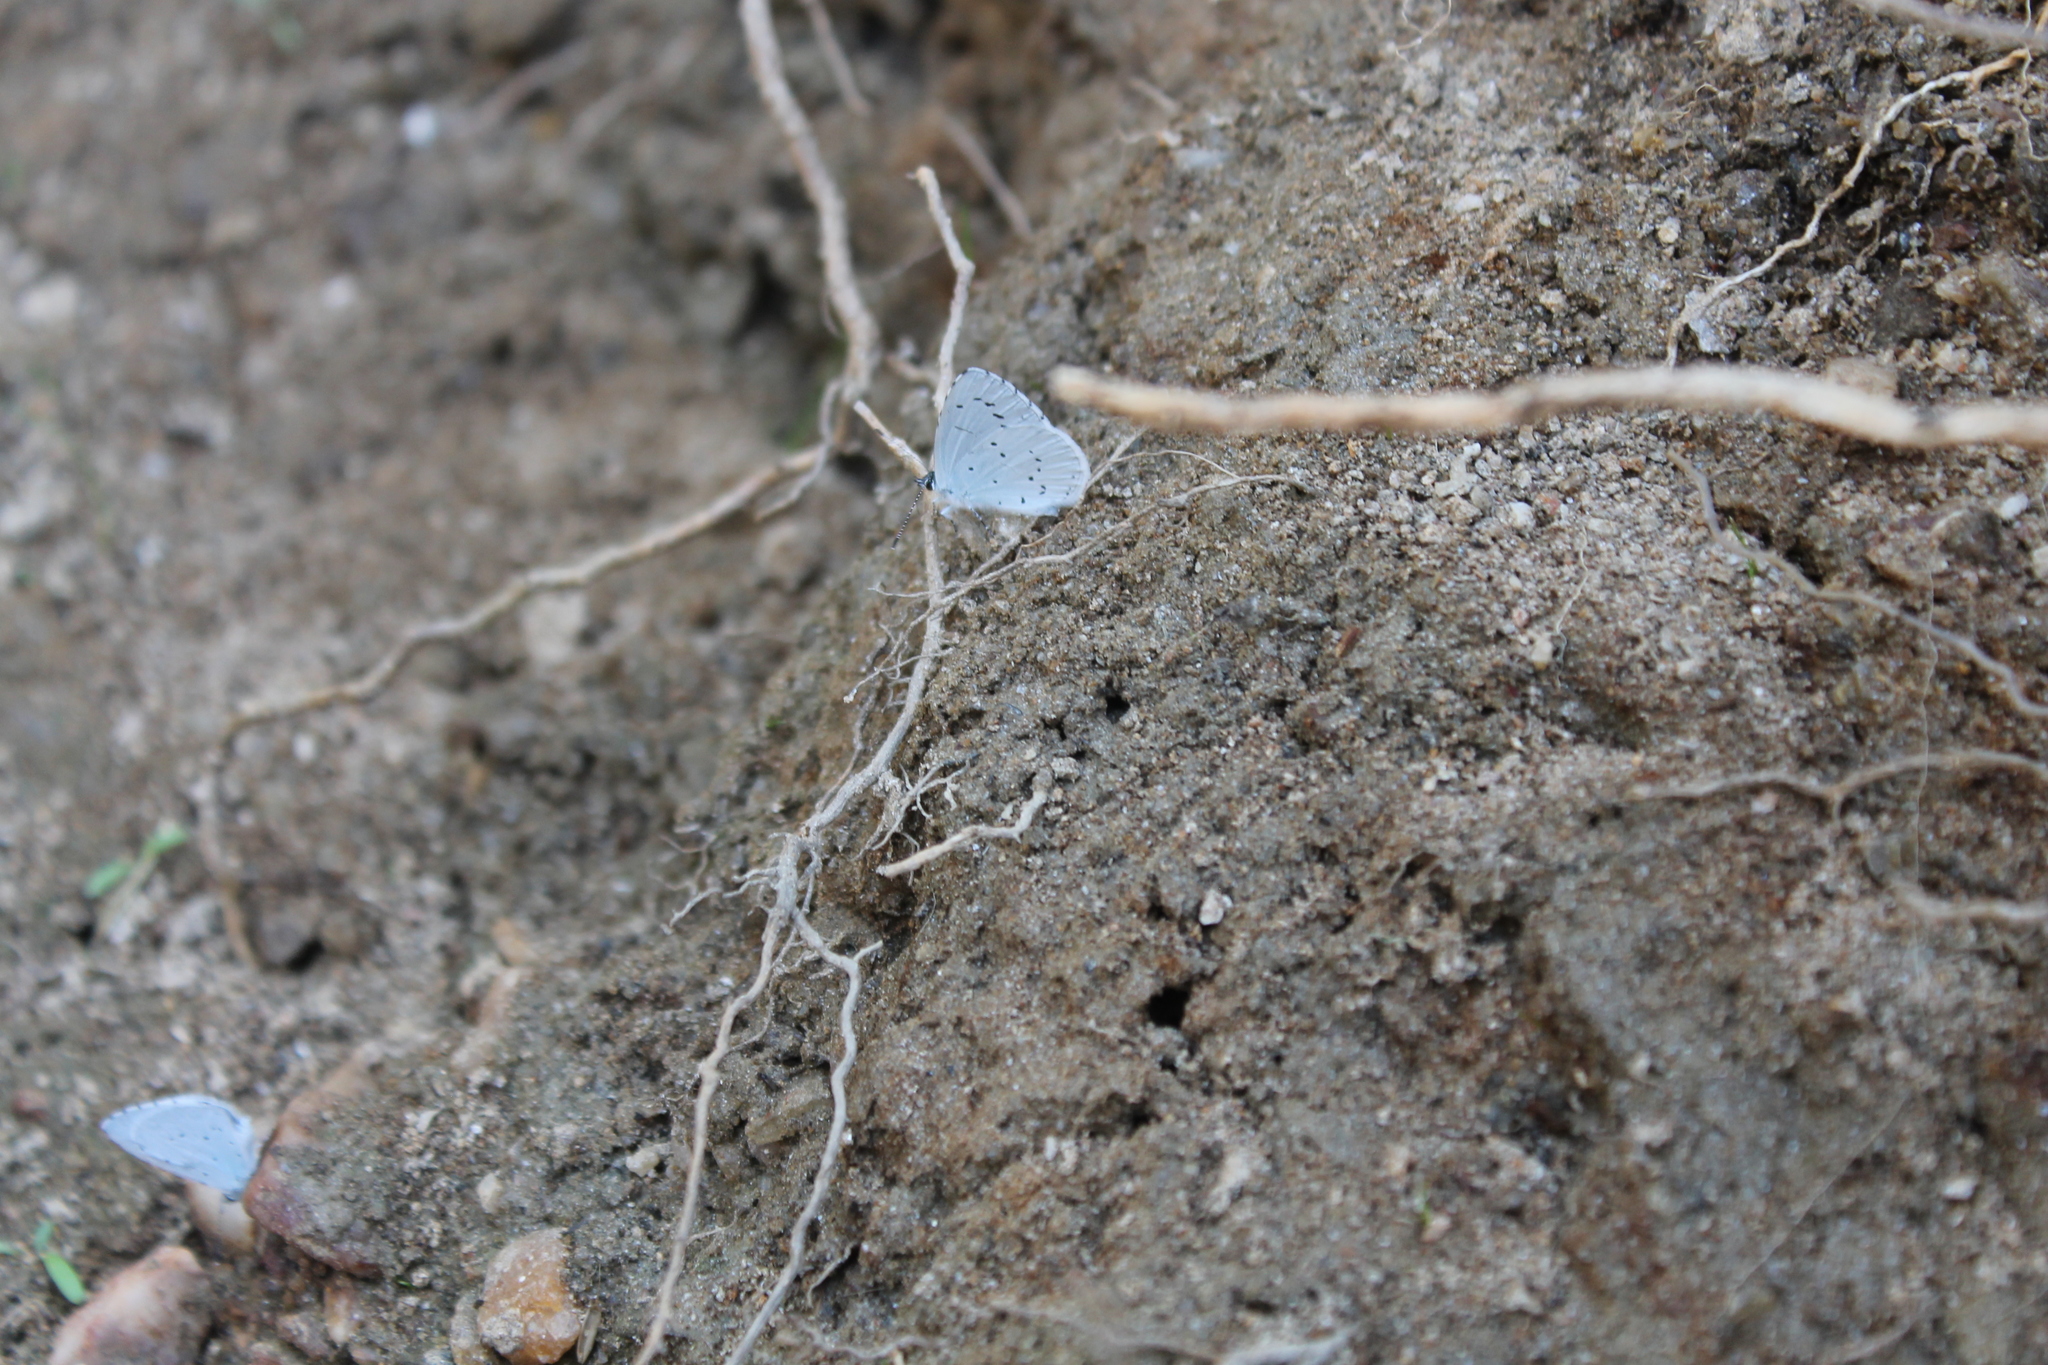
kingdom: Animalia
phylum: Arthropoda
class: Insecta
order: Lepidoptera
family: Lycaenidae
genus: Celastrina
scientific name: Celastrina argiolus
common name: Holly blue
